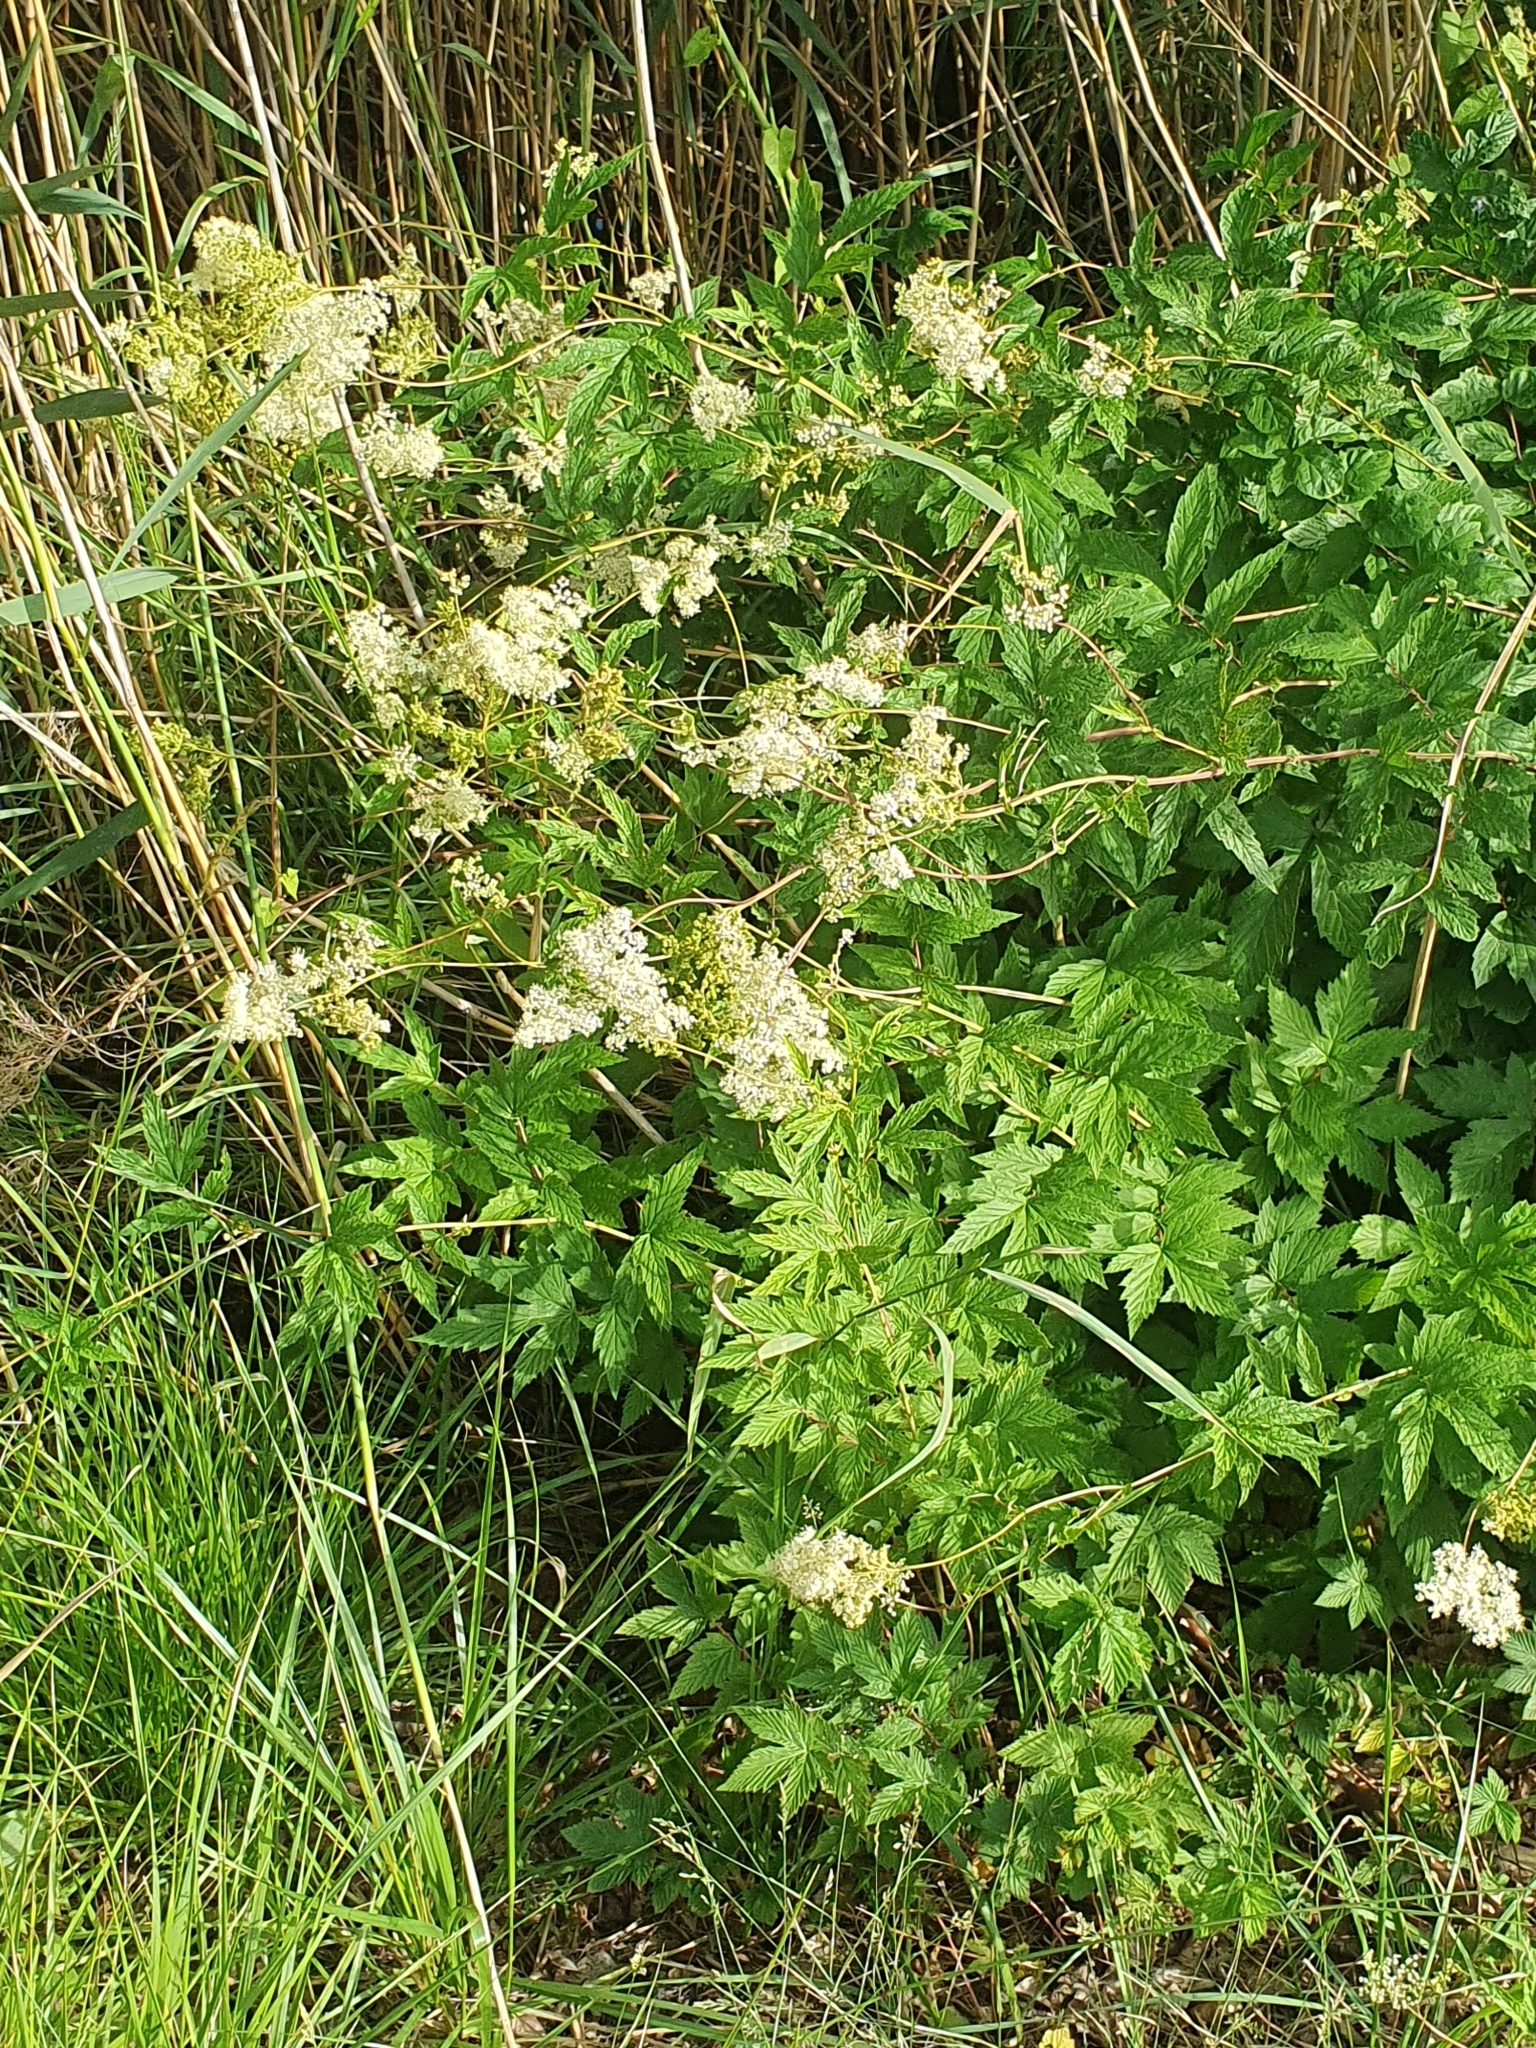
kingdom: Plantae
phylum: Tracheophyta
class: Magnoliopsida
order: Rosales
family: Rosaceae
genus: Filipendula
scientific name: Filipendula ulmaria
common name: Meadowsweet
